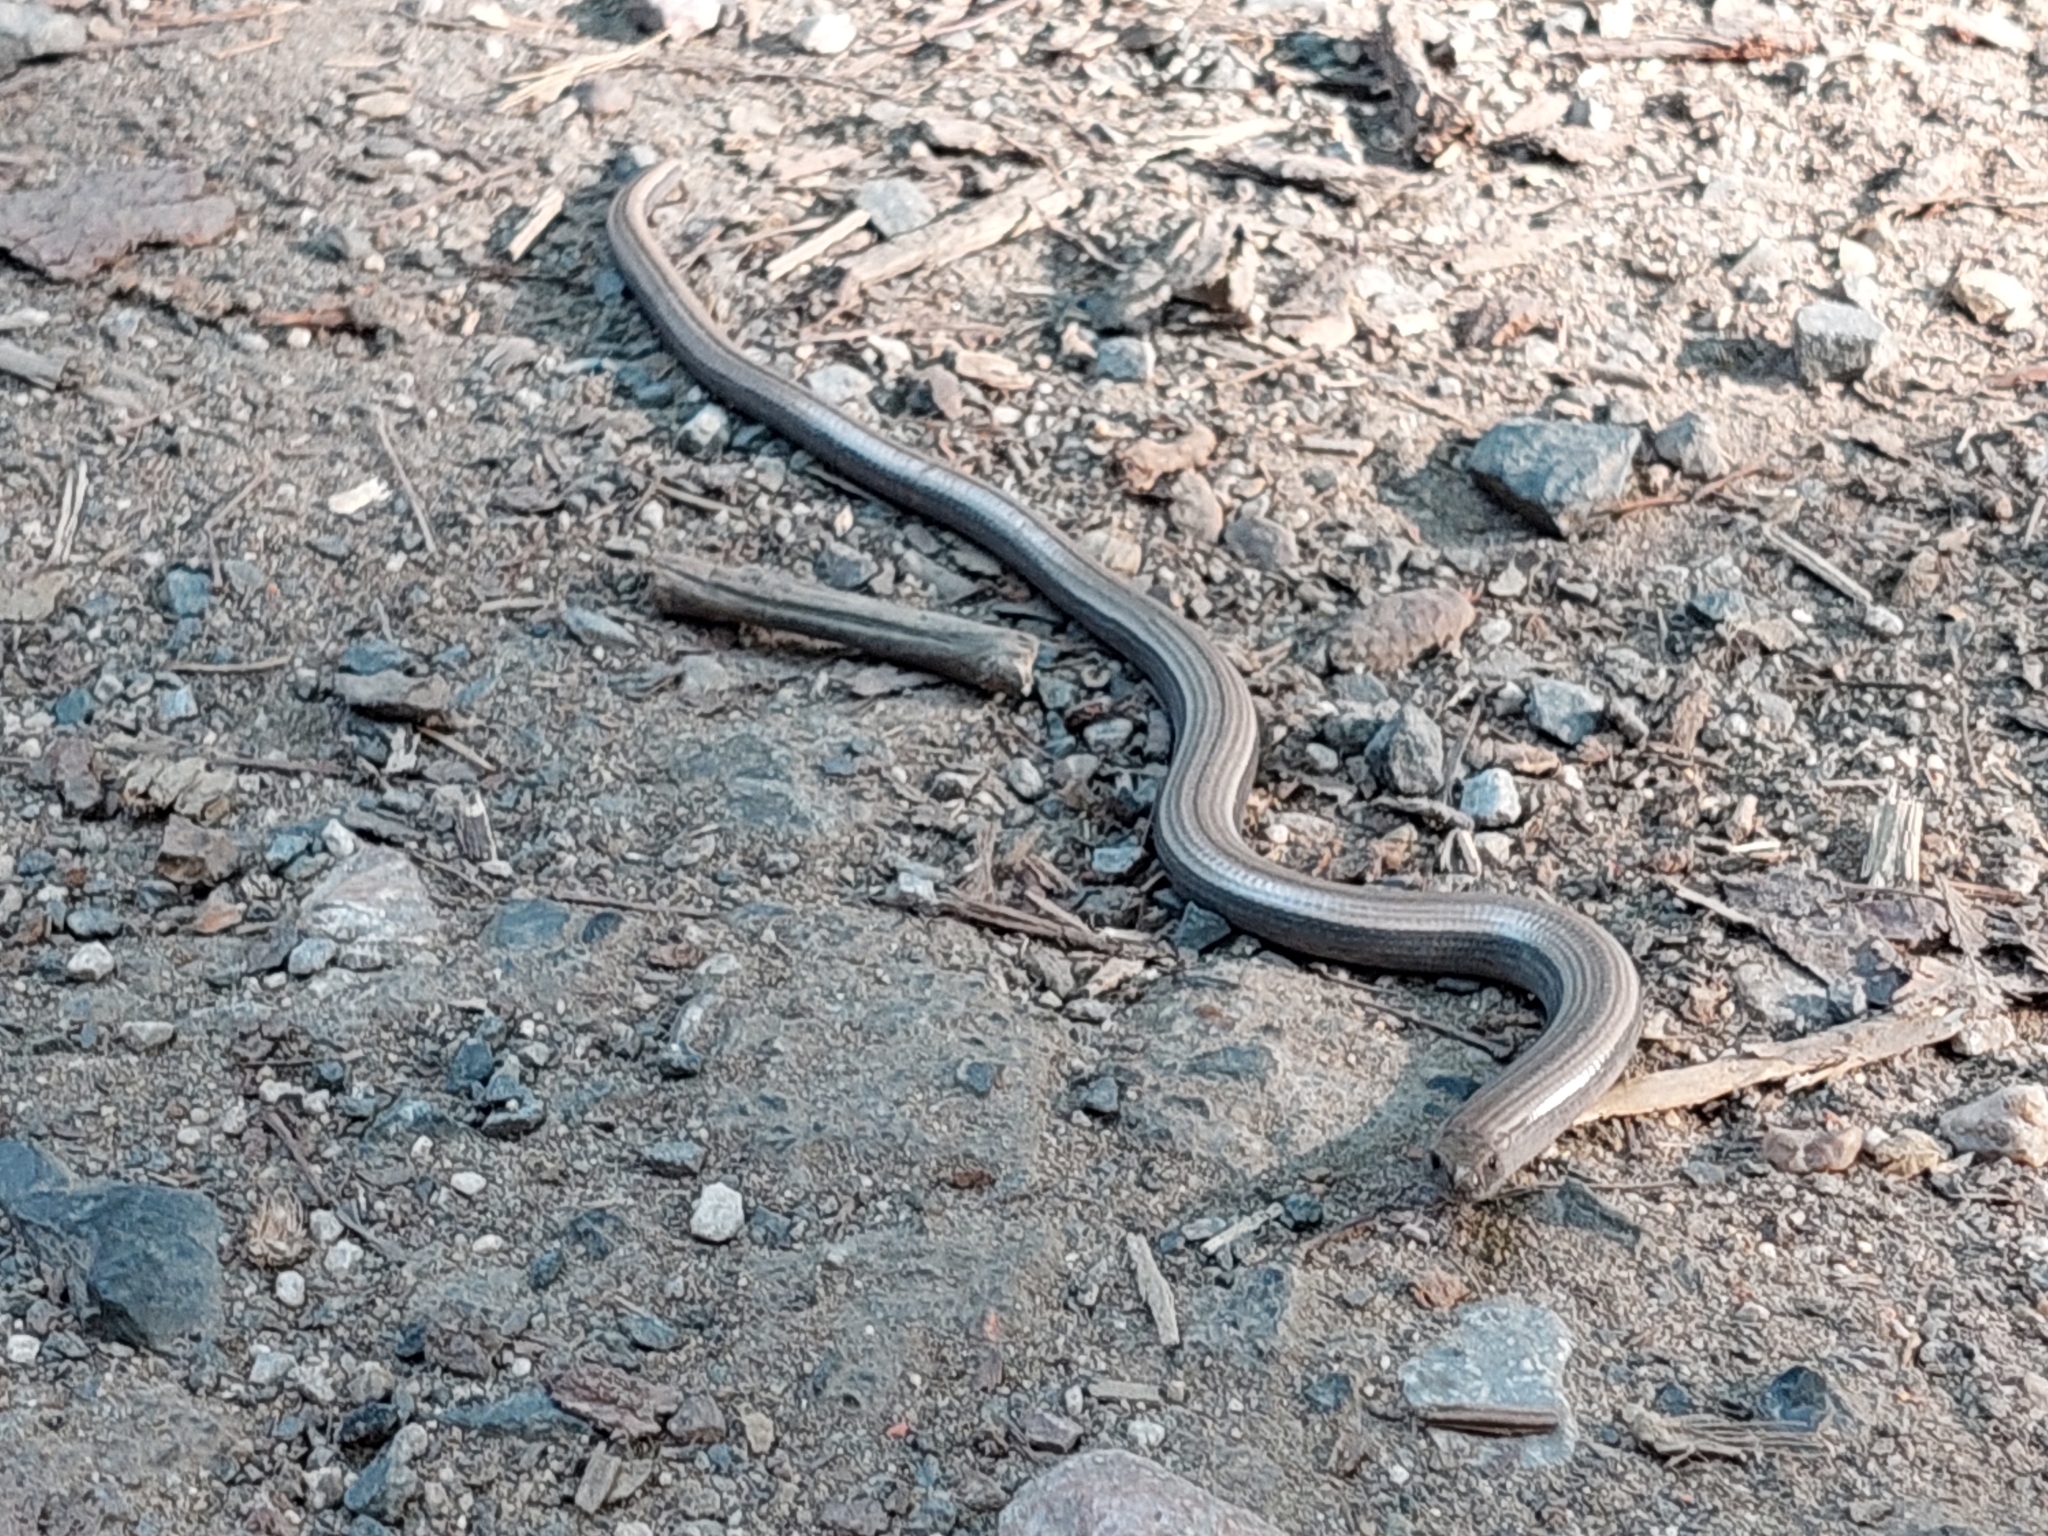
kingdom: Animalia
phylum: Chordata
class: Squamata
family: Anguidae
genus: Anguis
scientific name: Anguis fragilis
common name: Slow worm
